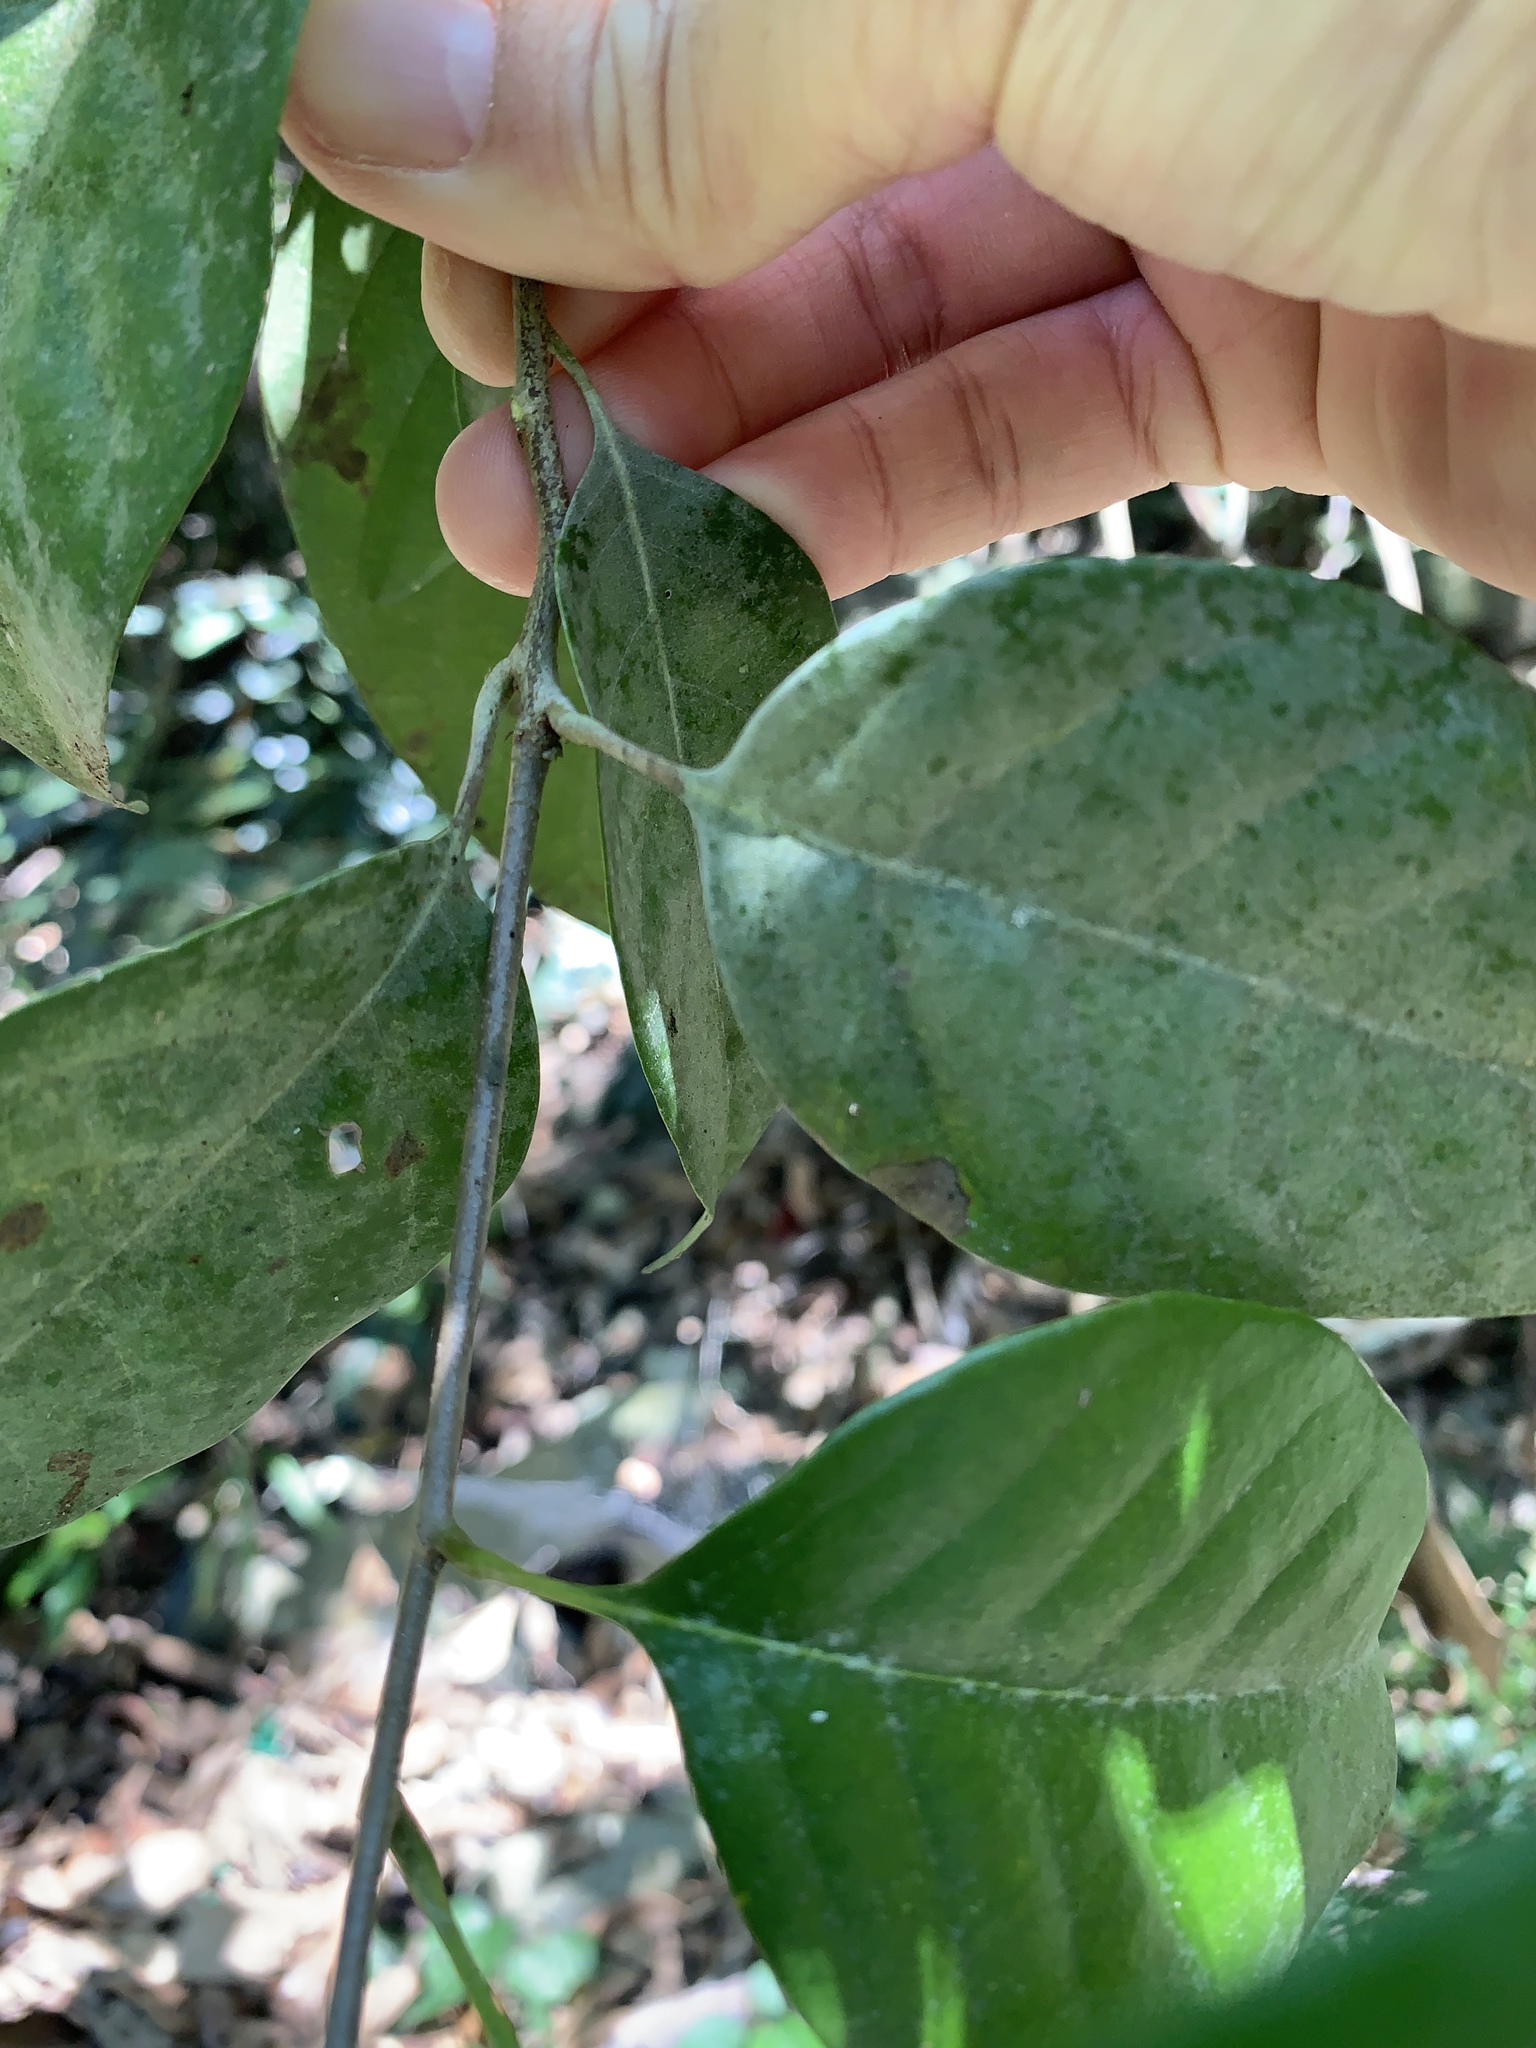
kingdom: Plantae
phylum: Tracheophyta
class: Magnoliopsida
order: Fagales
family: Fagaceae
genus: Castanopsis
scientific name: Castanopsis kawakamii
